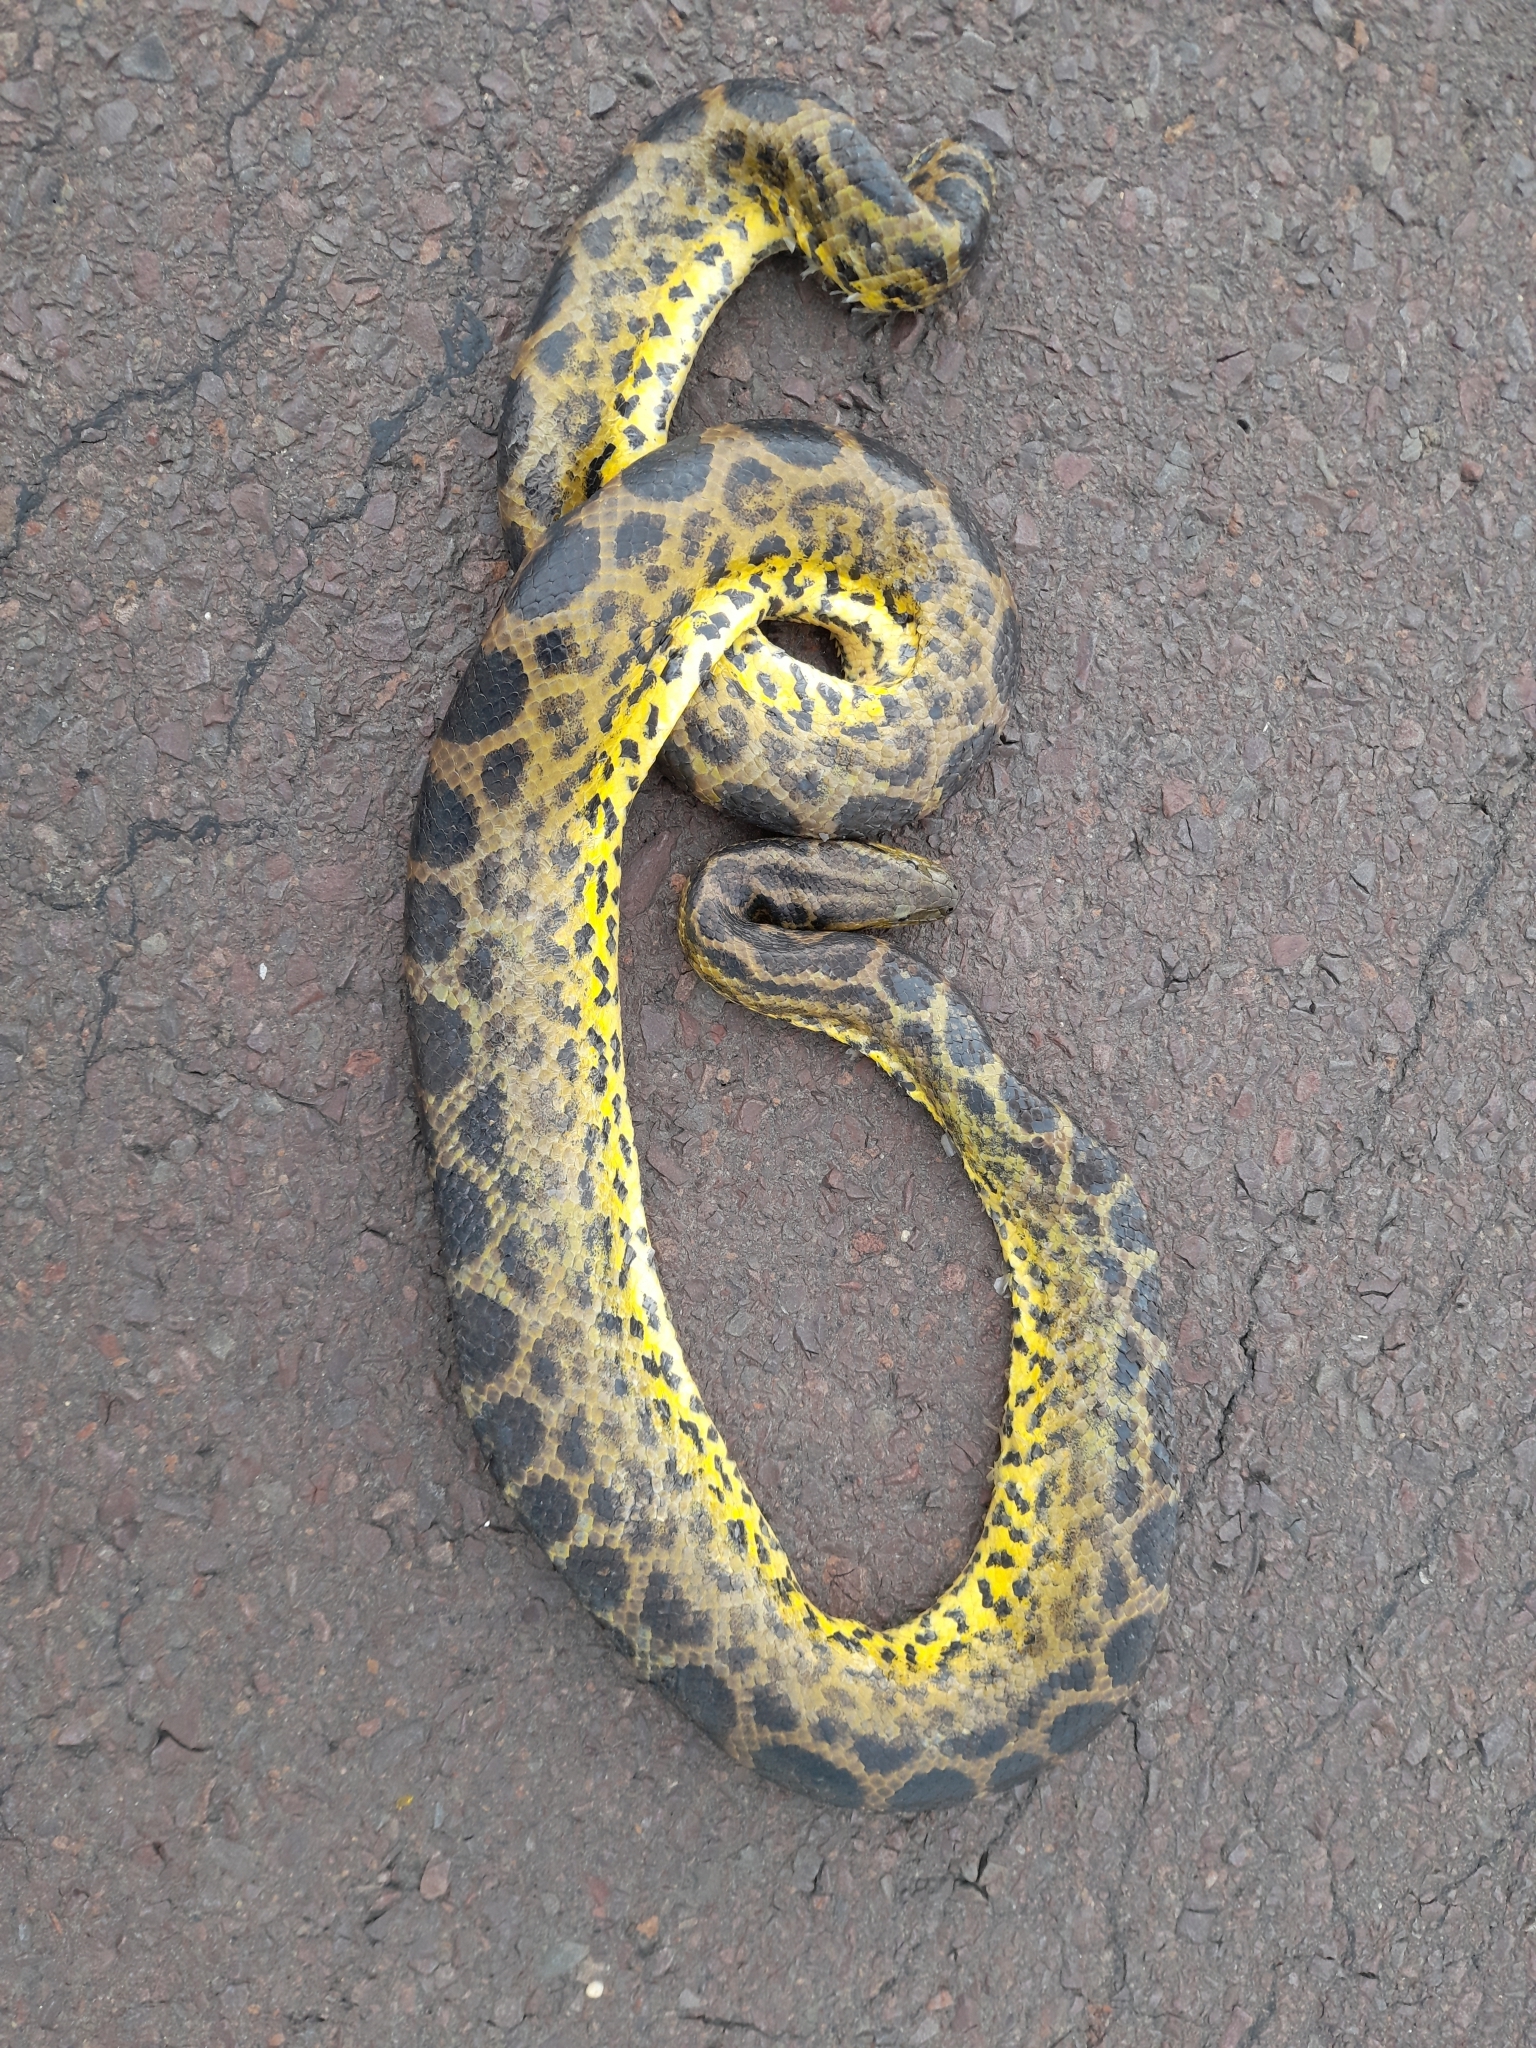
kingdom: Animalia
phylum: Chordata
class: Squamata
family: Boidae
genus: Eunectes
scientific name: Eunectes notaeus
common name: Yellow anaconda
